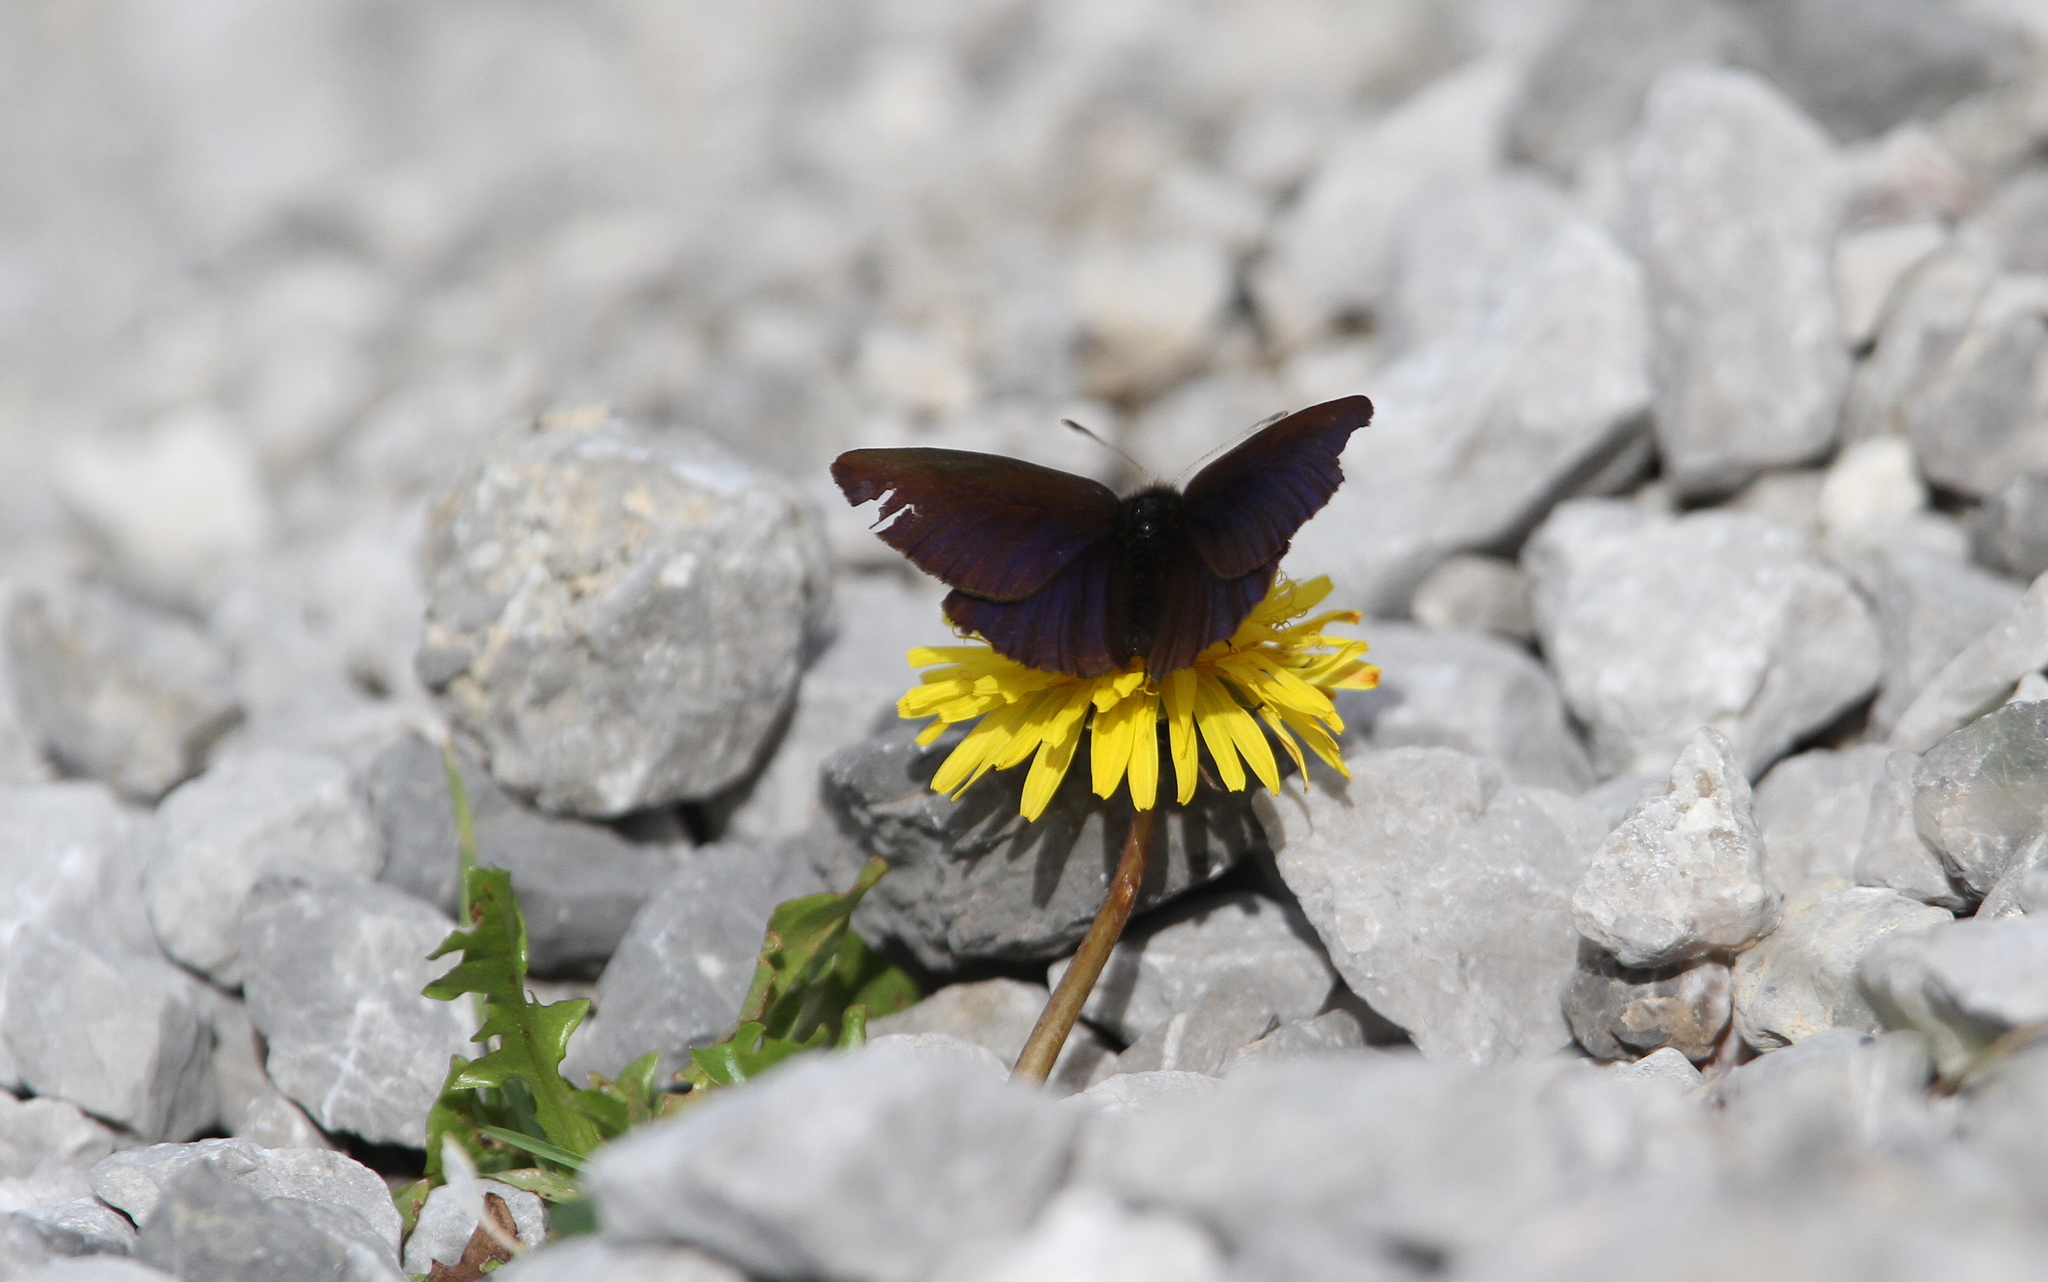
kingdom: Animalia
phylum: Arthropoda
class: Insecta
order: Lepidoptera
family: Nymphalidae
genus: Erebia
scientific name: Erebia pluto
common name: Sooty ringlet
